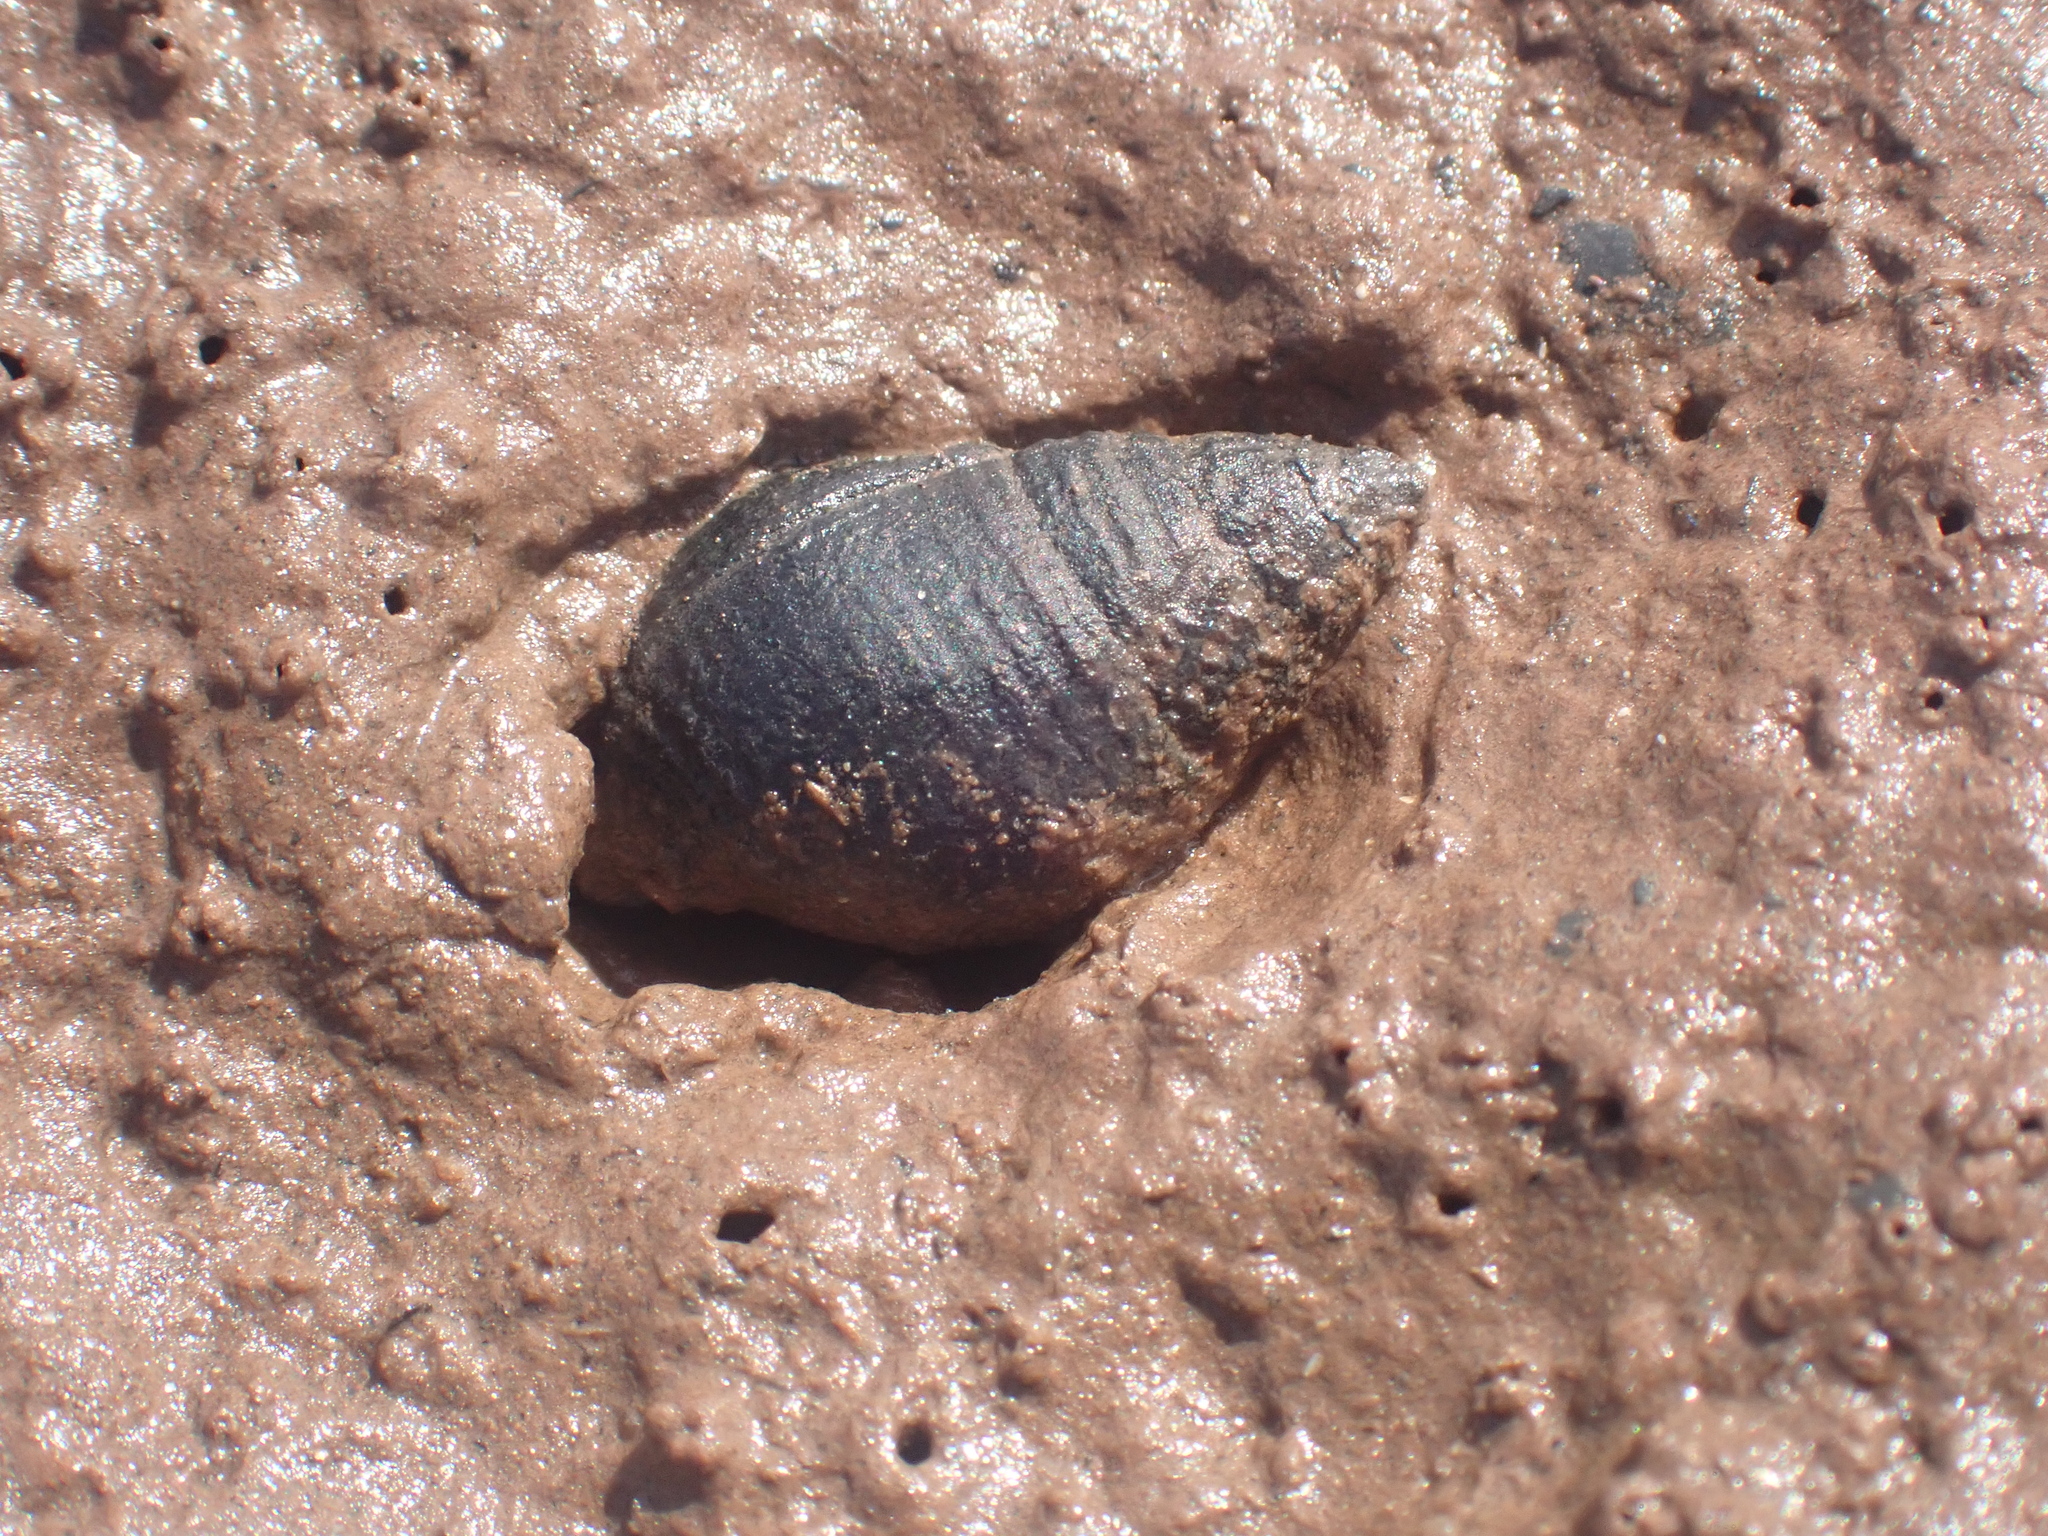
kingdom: Animalia
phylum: Mollusca
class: Gastropoda
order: Neogastropoda
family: Nassariidae
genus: Ilyanassa
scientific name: Ilyanassa obsoleta
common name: Eastern mudsnail
